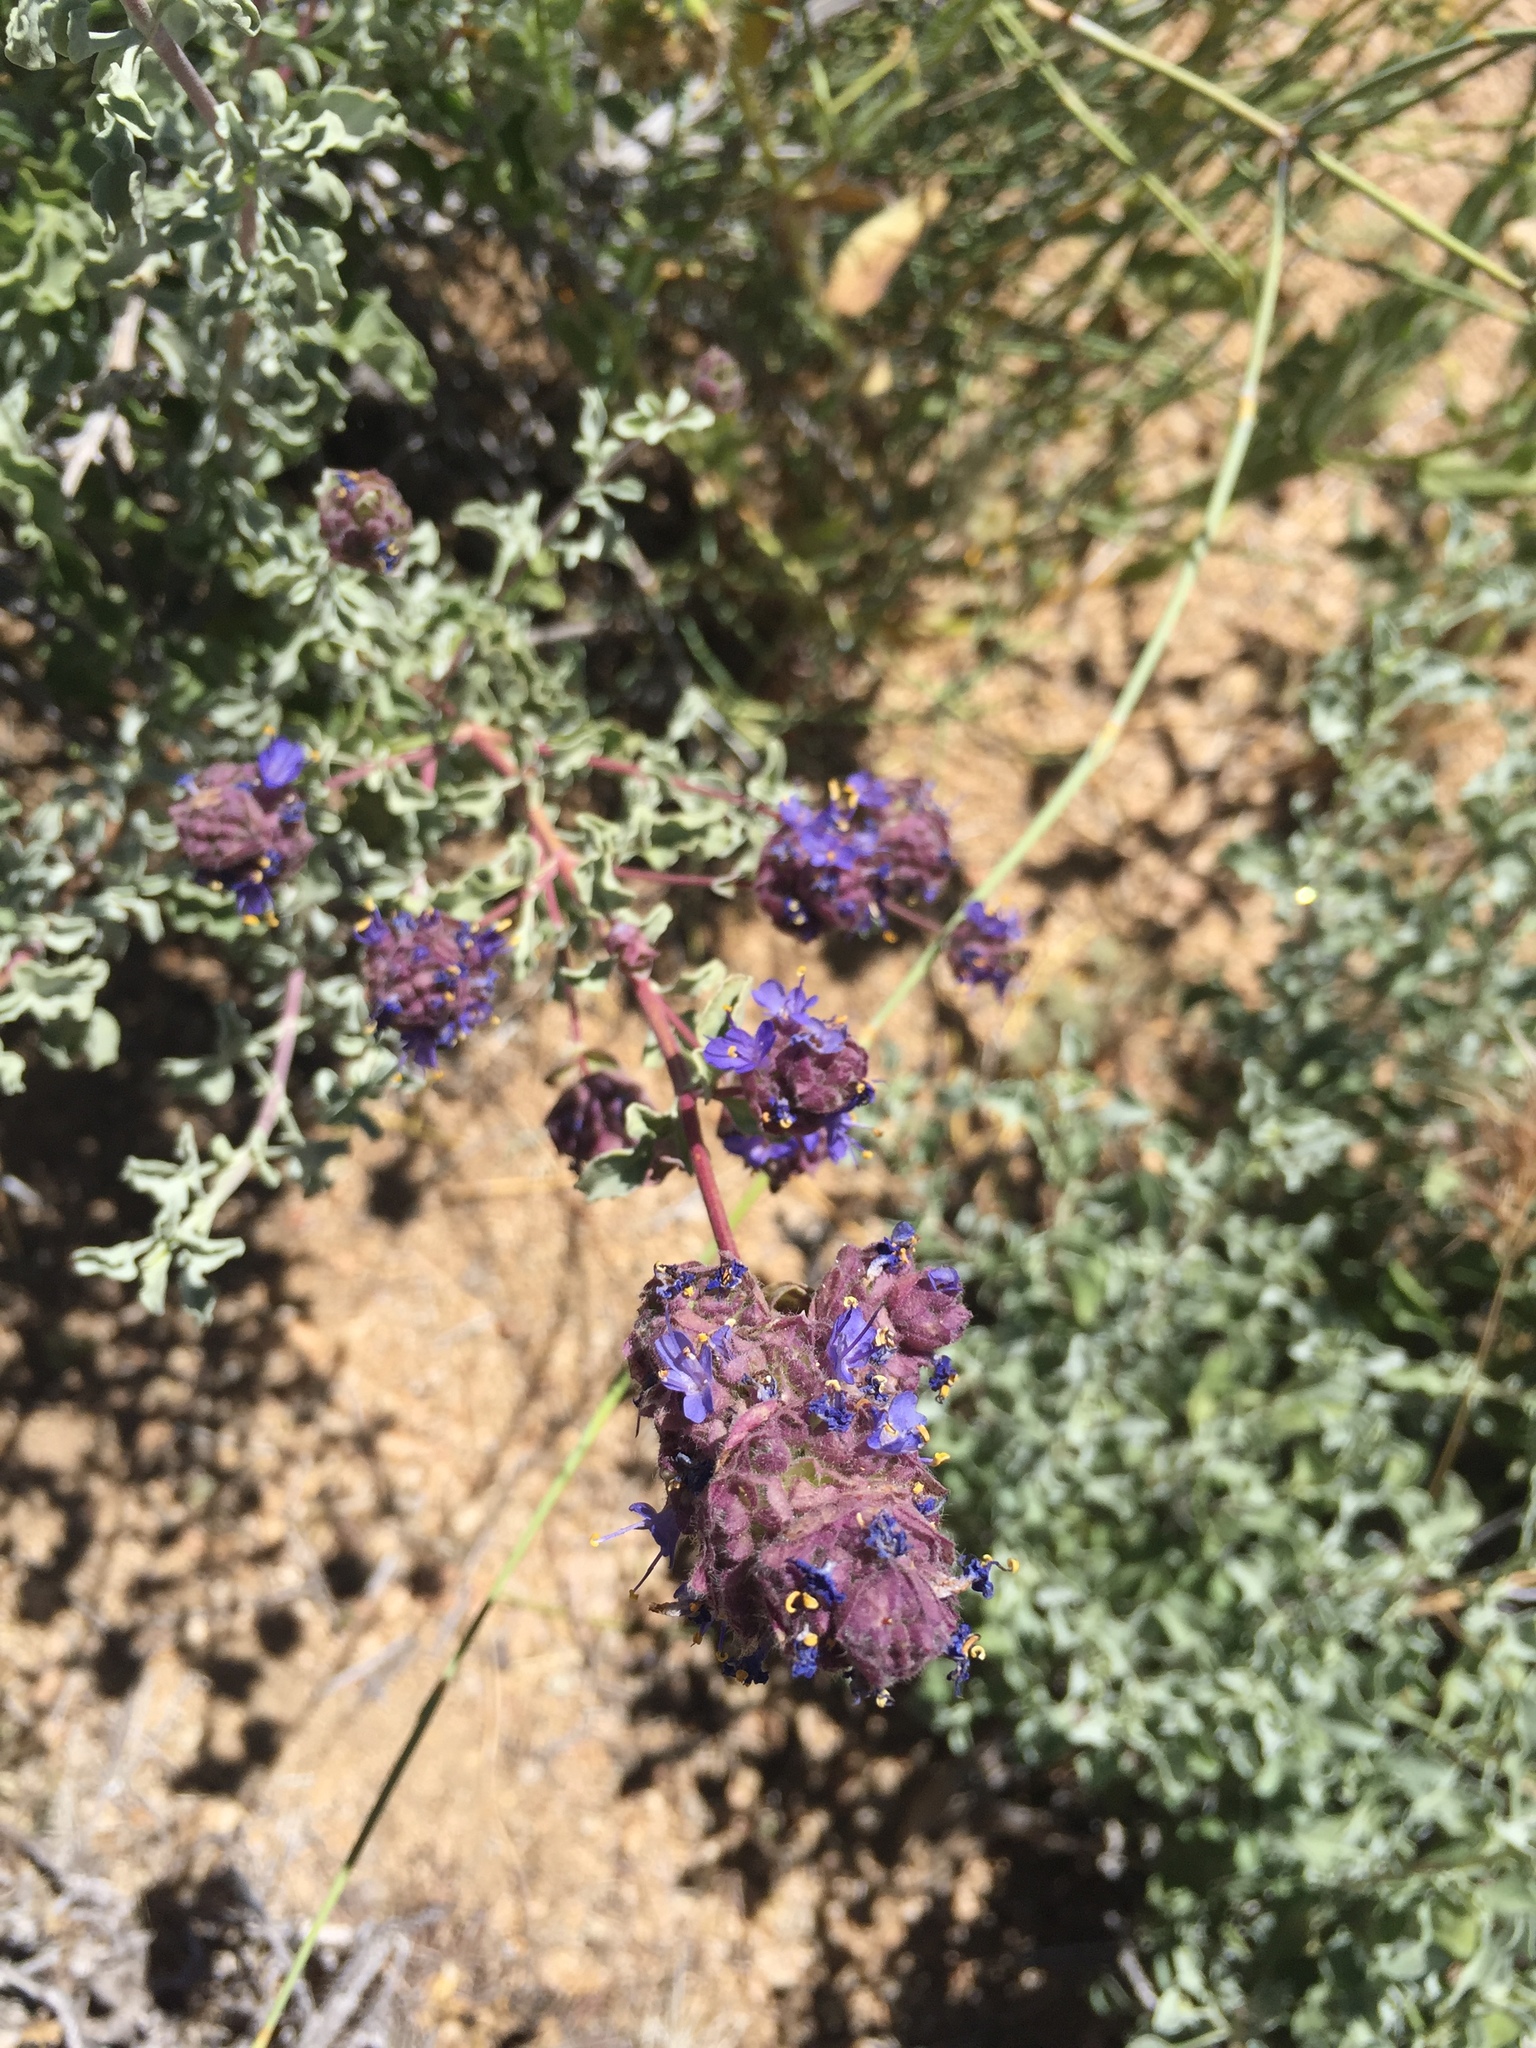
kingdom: Plantae
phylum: Tracheophyta
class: Magnoliopsida
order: Lamiales
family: Lamiaceae
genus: Salvia
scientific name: Salvia dorrii
